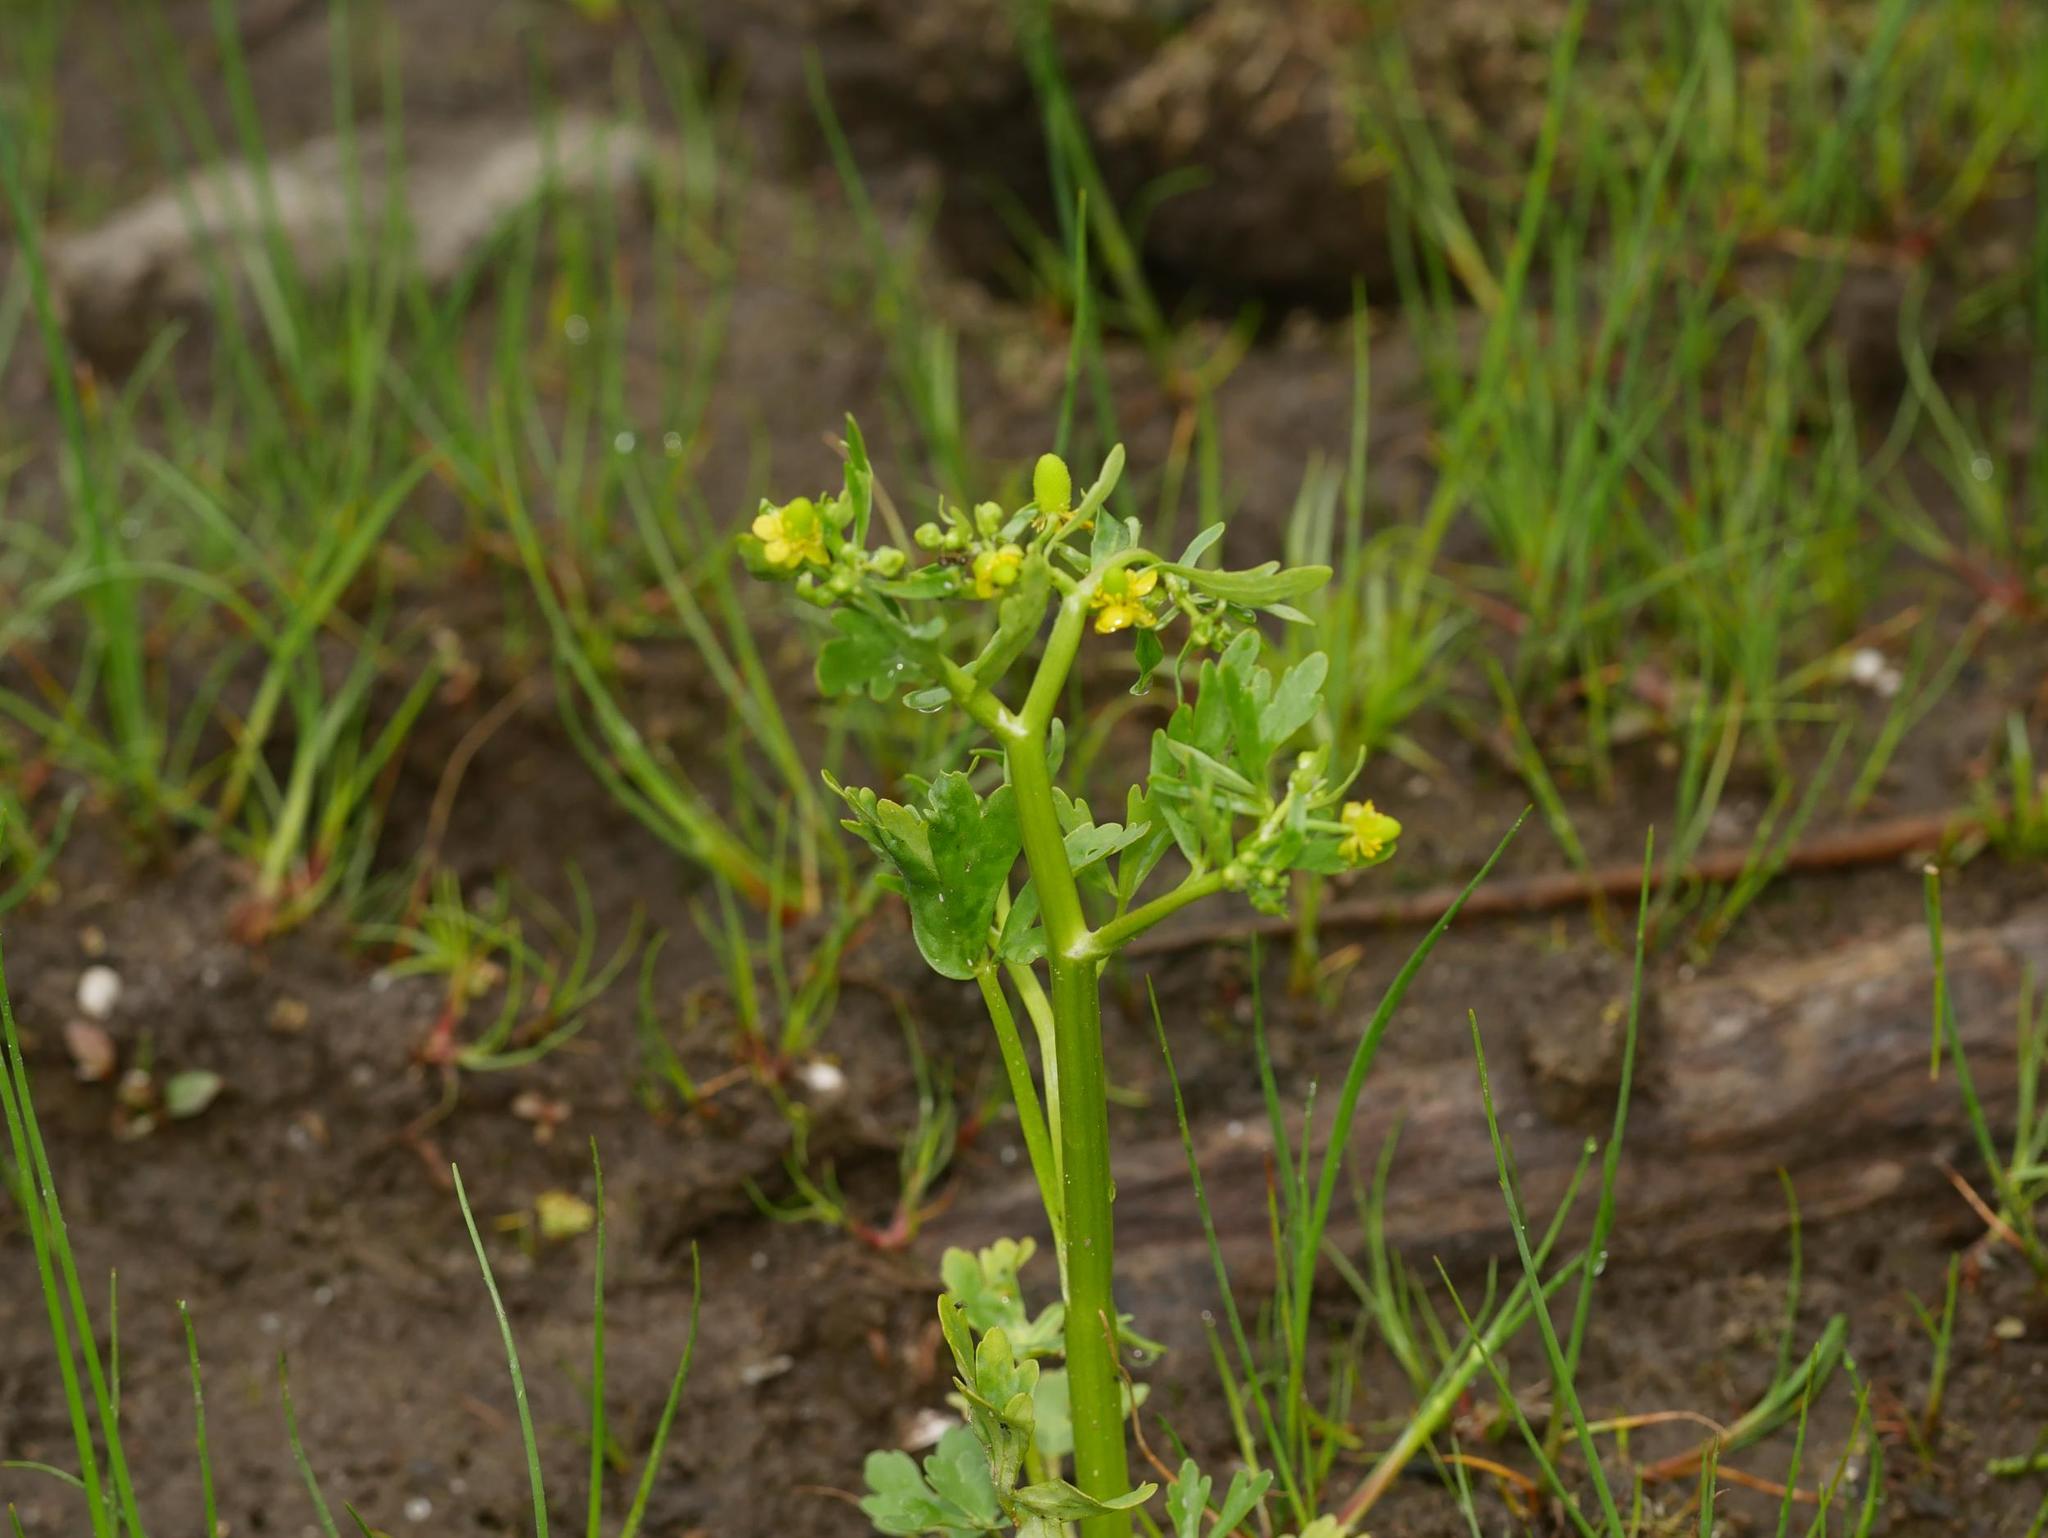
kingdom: Plantae
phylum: Tracheophyta
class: Magnoliopsida
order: Ranunculales
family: Ranunculaceae
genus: Ranunculus
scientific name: Ranunculus sceleratus
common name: Celery-leaved buttercup
